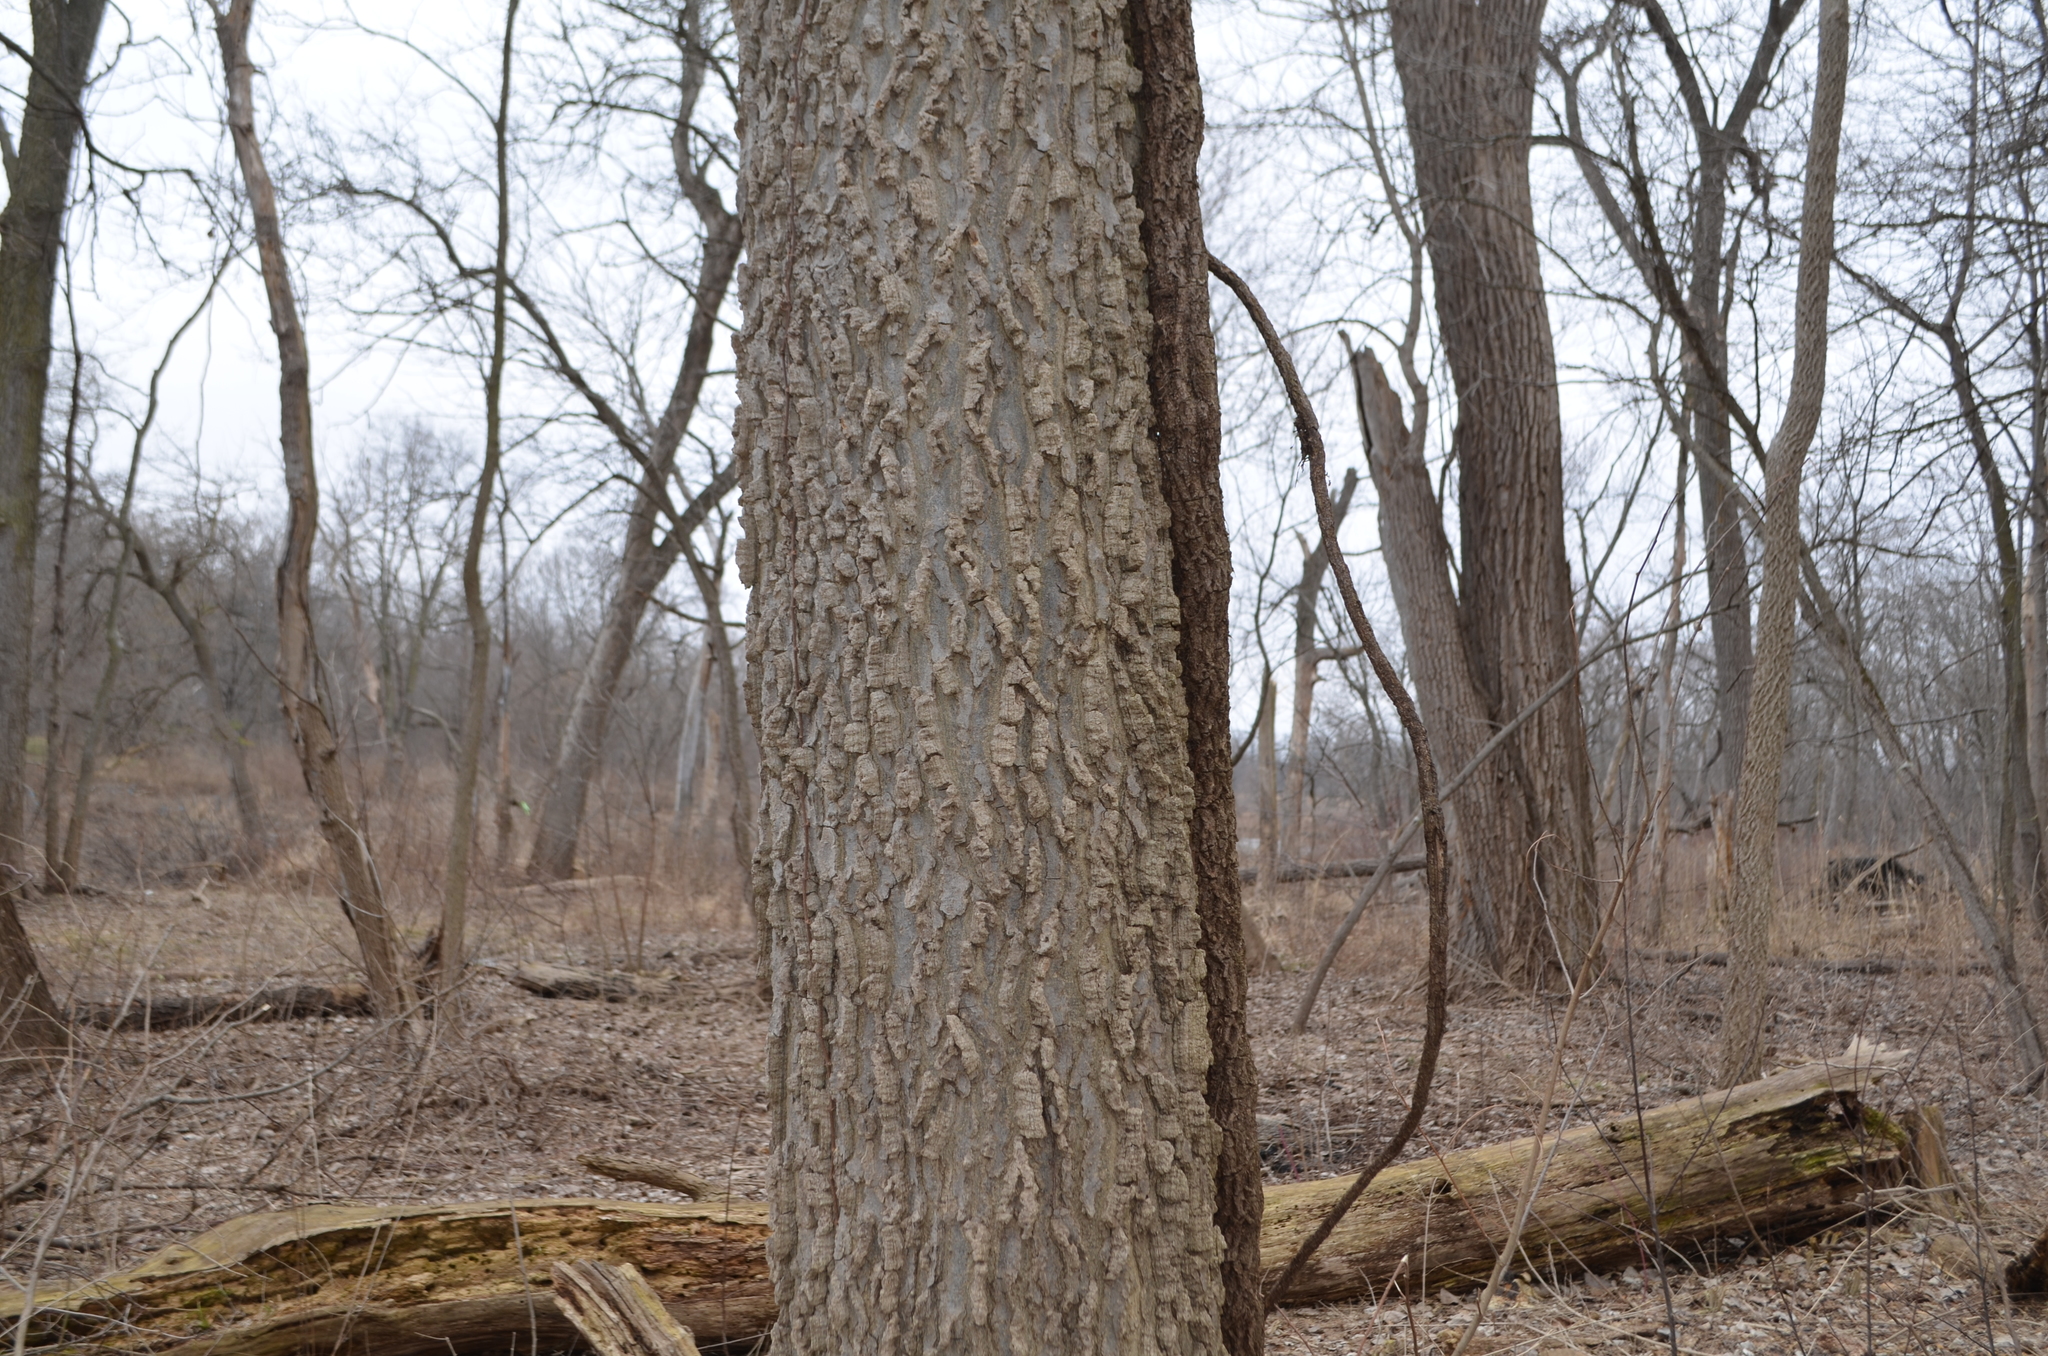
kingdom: Plantae
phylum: Tracheophyta
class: Magnoliopsida
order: Rosales
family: Cannabaceae
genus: Celtis
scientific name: Celtis occidentalis
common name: Common hackberry
